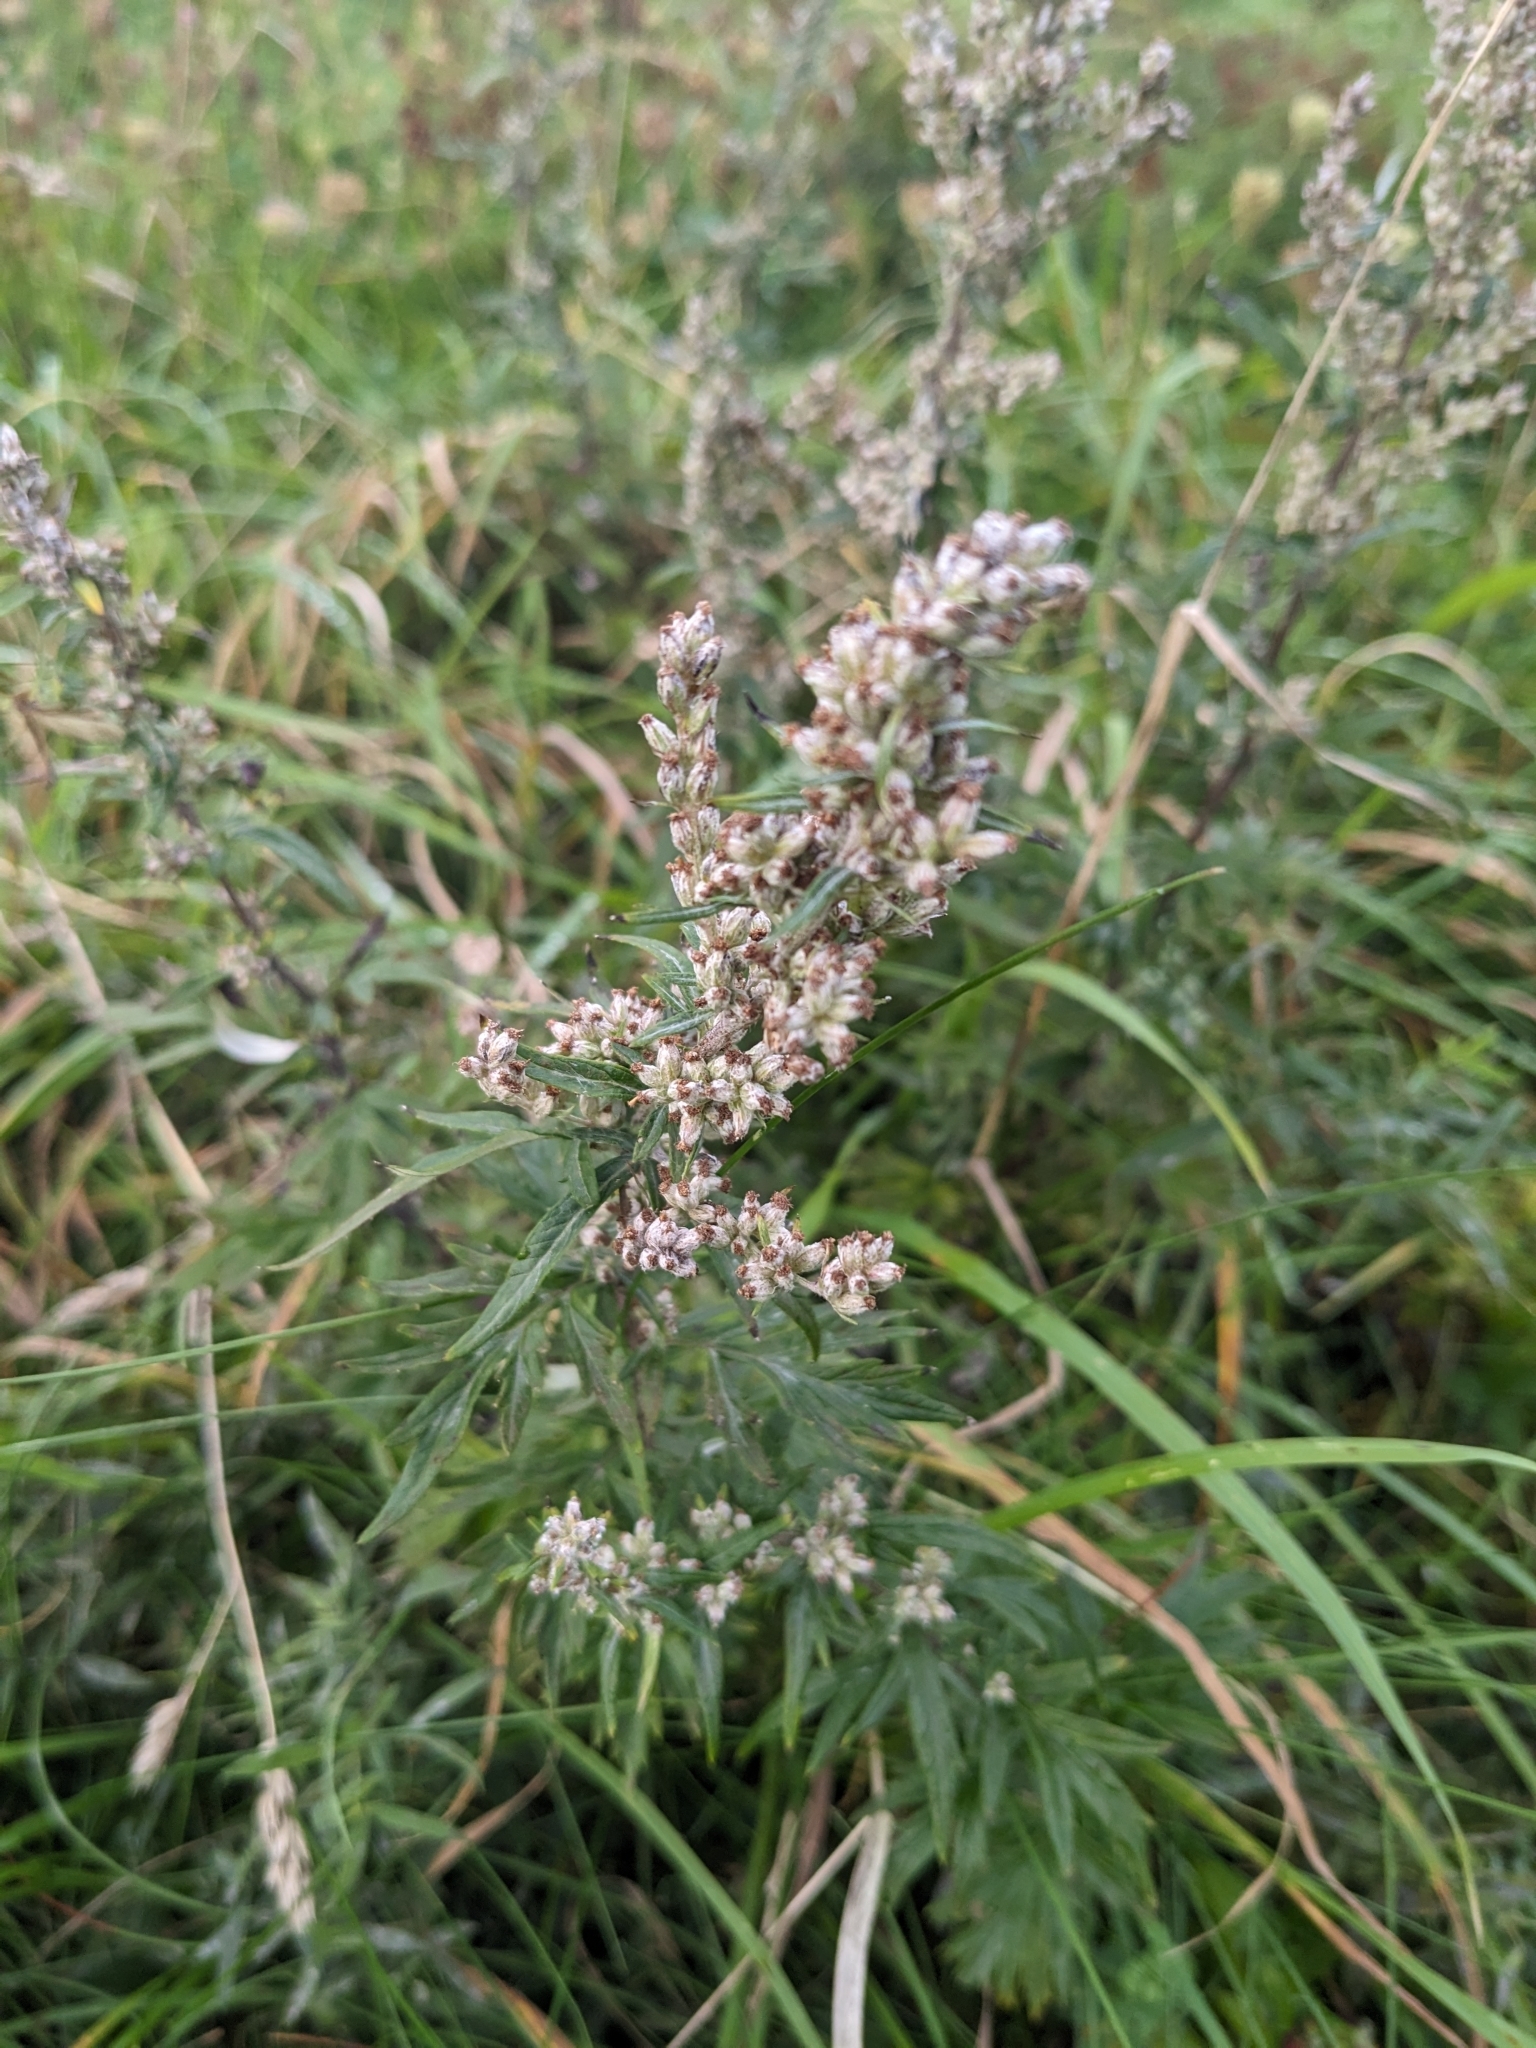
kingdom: Plantae
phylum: Tracheophyta
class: Magnoliopsida
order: Asterales
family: Asteraceae
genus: Artemisia
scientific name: Artemisia vulgaris
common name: Mugwort
